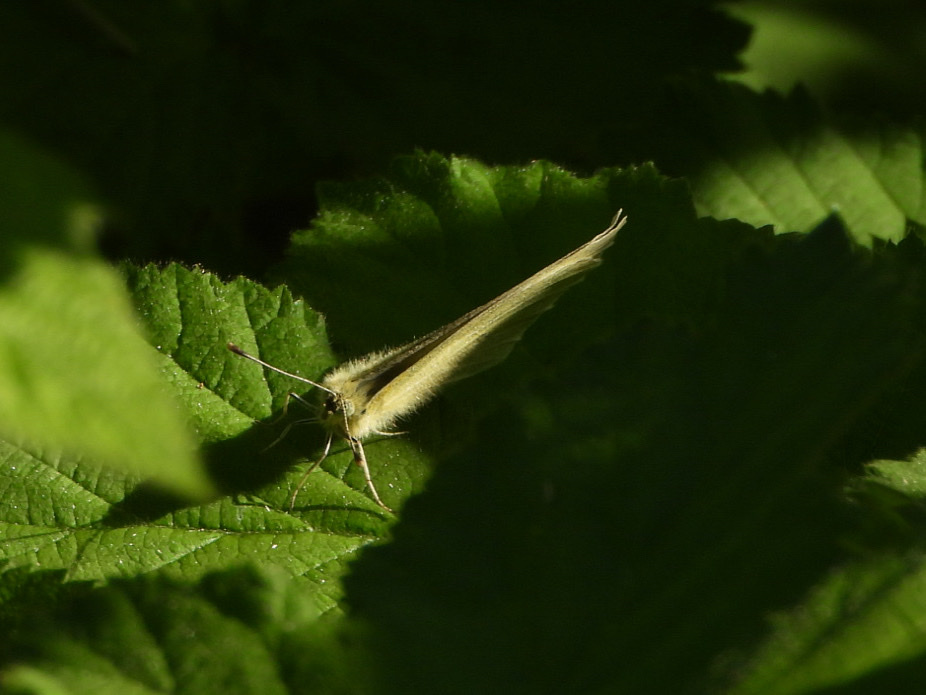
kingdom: Animalia
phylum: Arthropoda
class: Insecta
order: Lepidoptera
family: Pieridae
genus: Pieris
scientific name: Pieris rapae
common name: Small white
